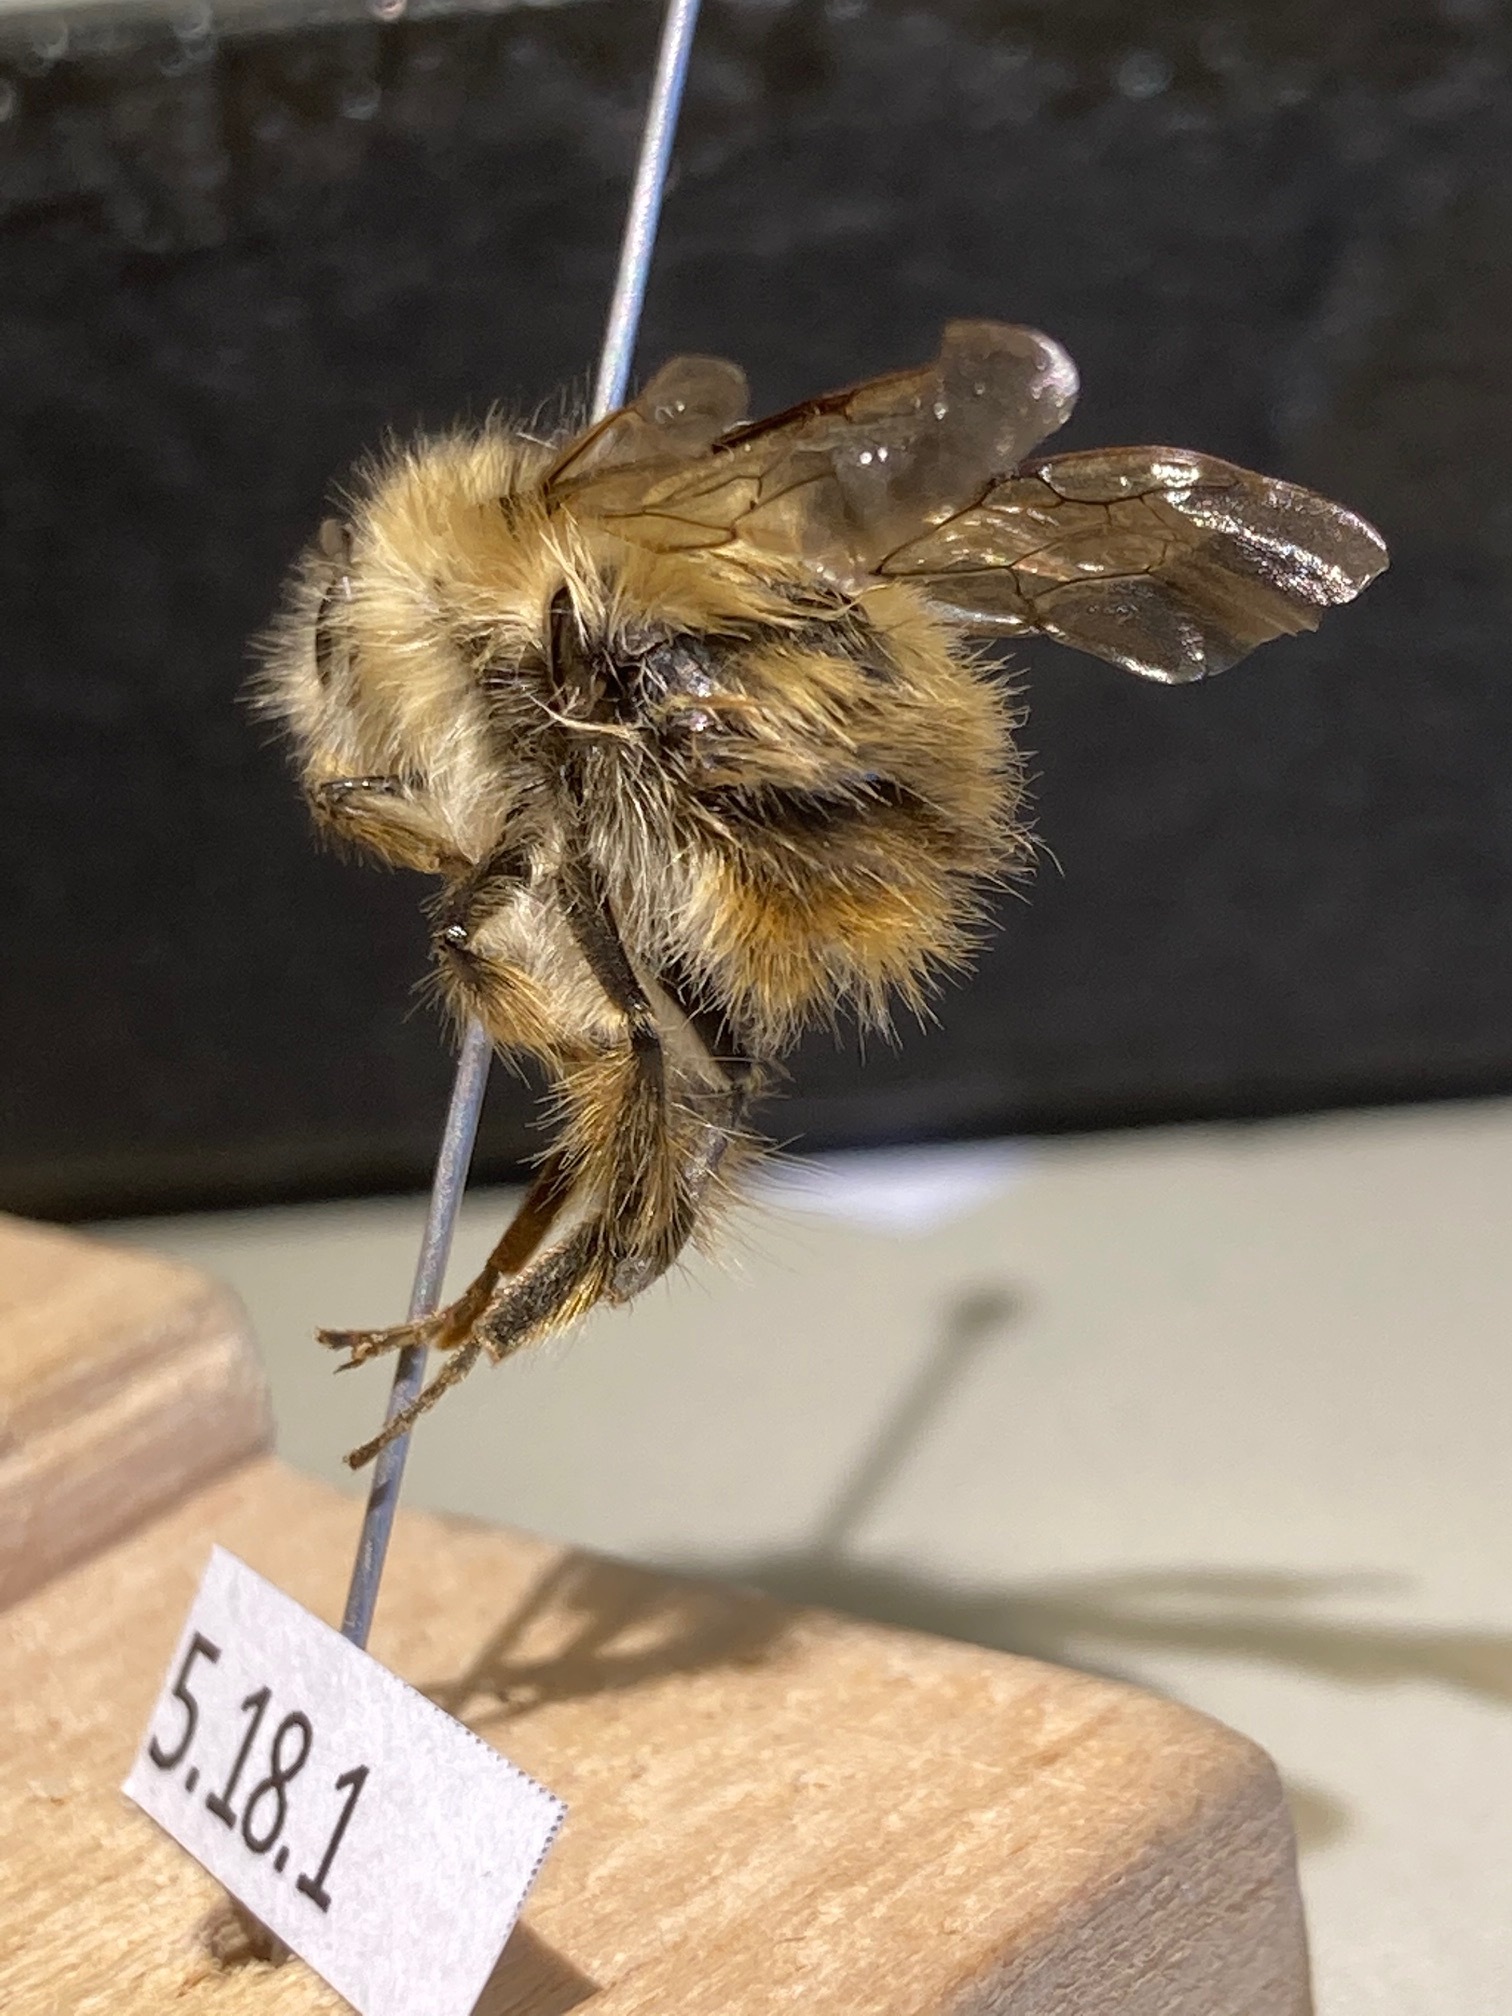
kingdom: Animalia
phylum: Arthropoda
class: Insecta
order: Hymenoptera
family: Apidae
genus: Bombus
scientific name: Bombus sitkensis
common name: Sitka bumble bee
